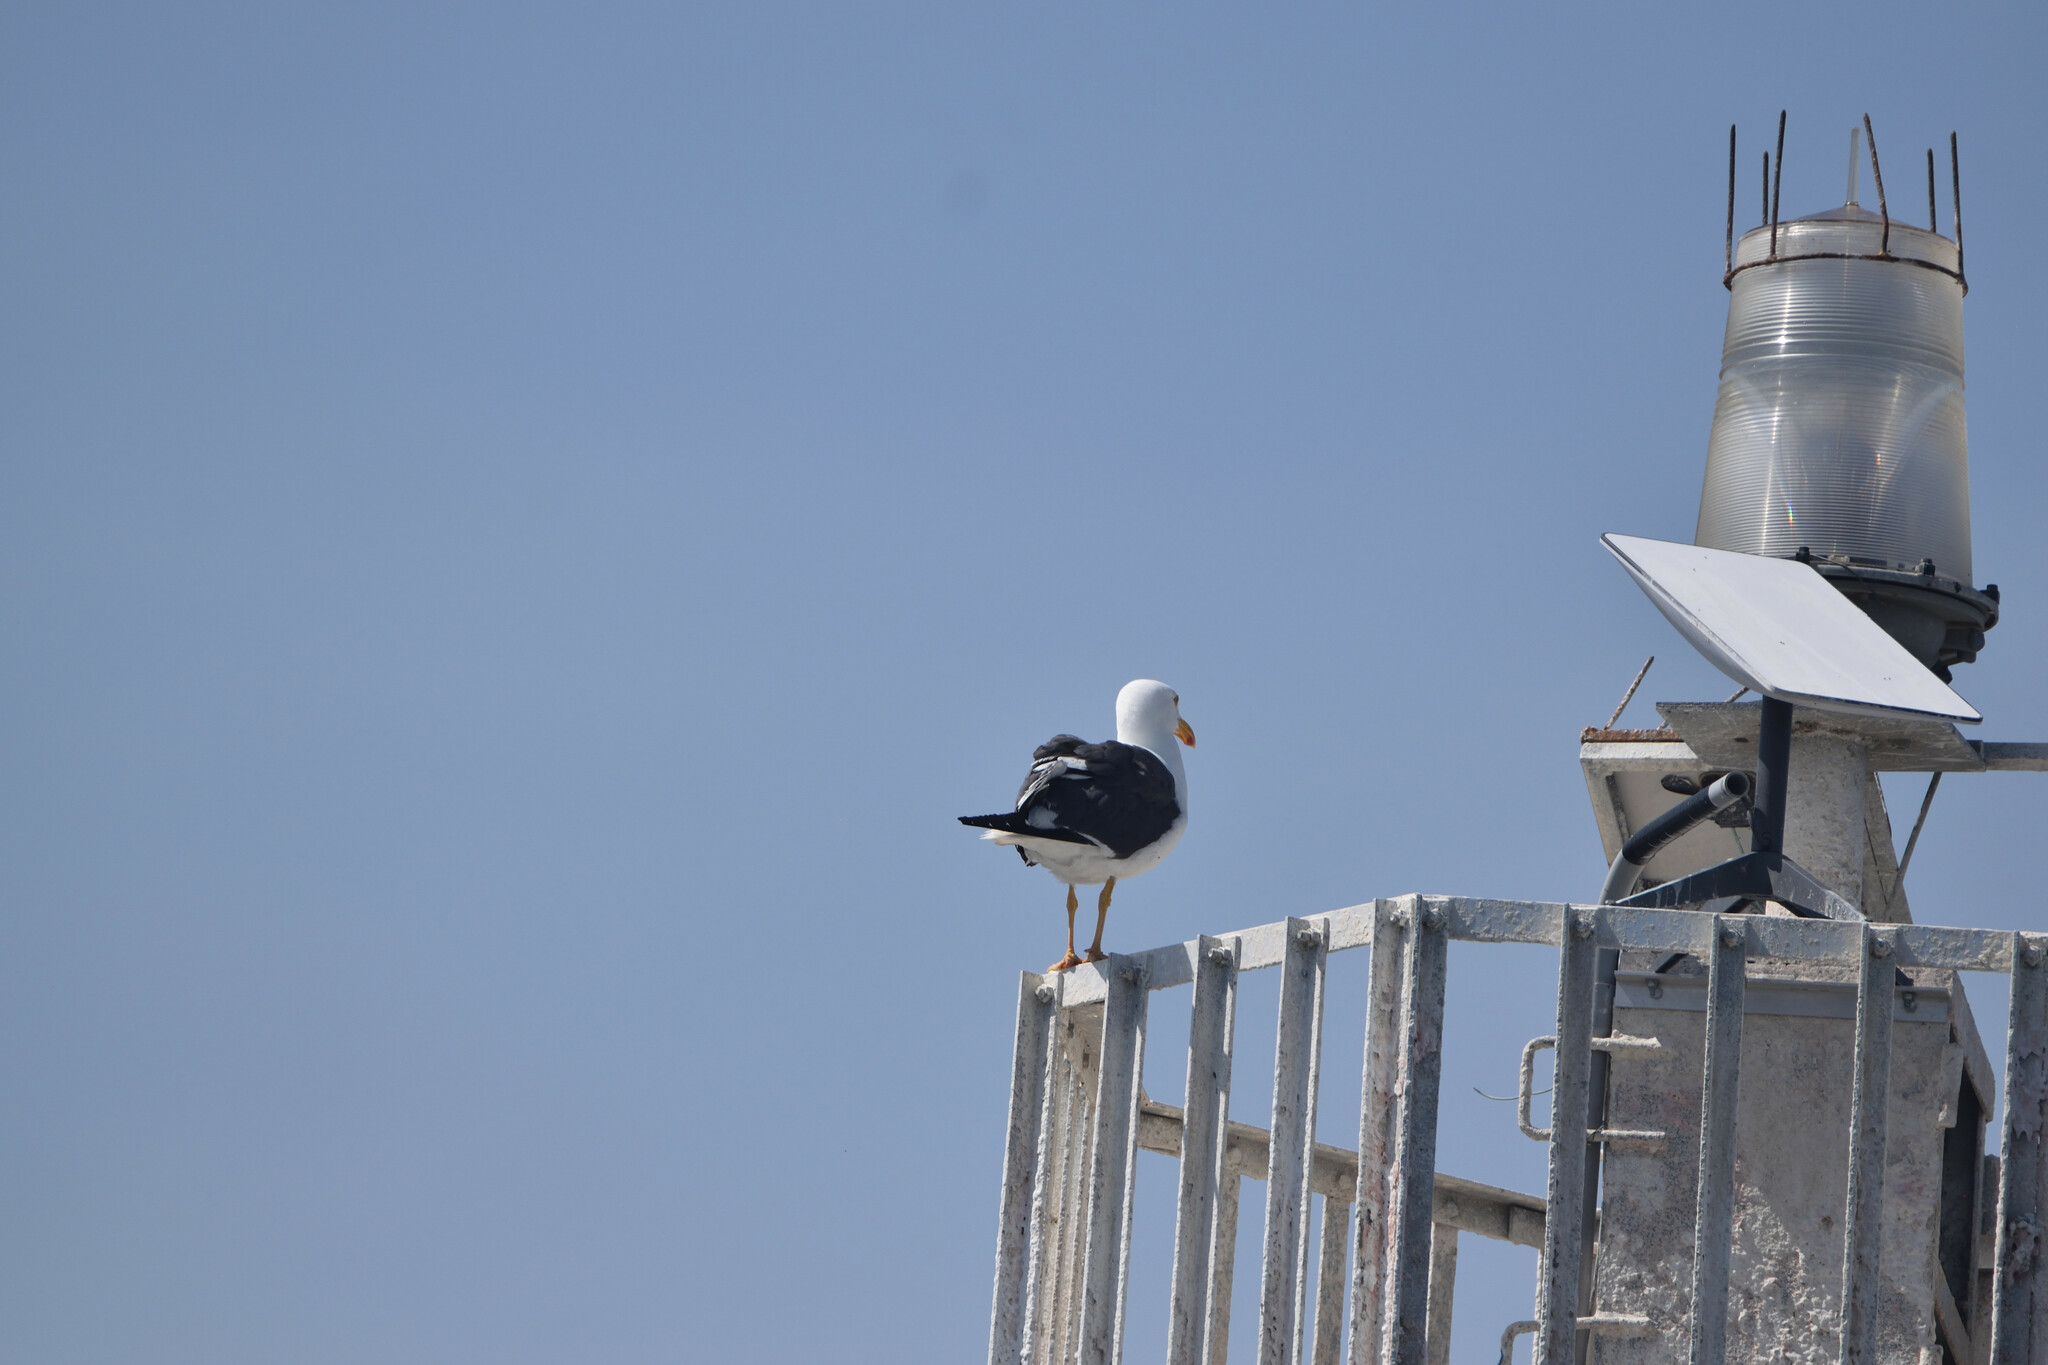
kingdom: Animalia
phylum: Chordata
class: Aves
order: Charadriiformes
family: Laridae
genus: Larus
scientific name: Larus livens
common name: Yellow-footed gull
